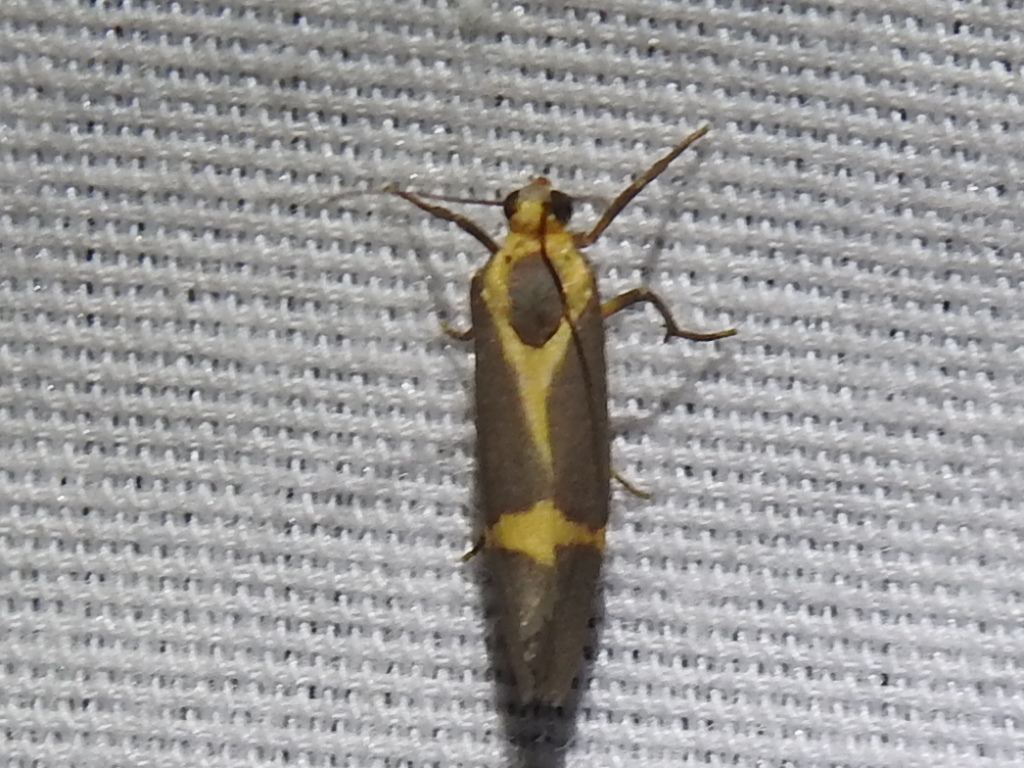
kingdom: Animalia
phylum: Arthropoda
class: Insecta
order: Lepidoptera
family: Erebidae
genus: Cisthene
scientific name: Cisthene tenuifascia
